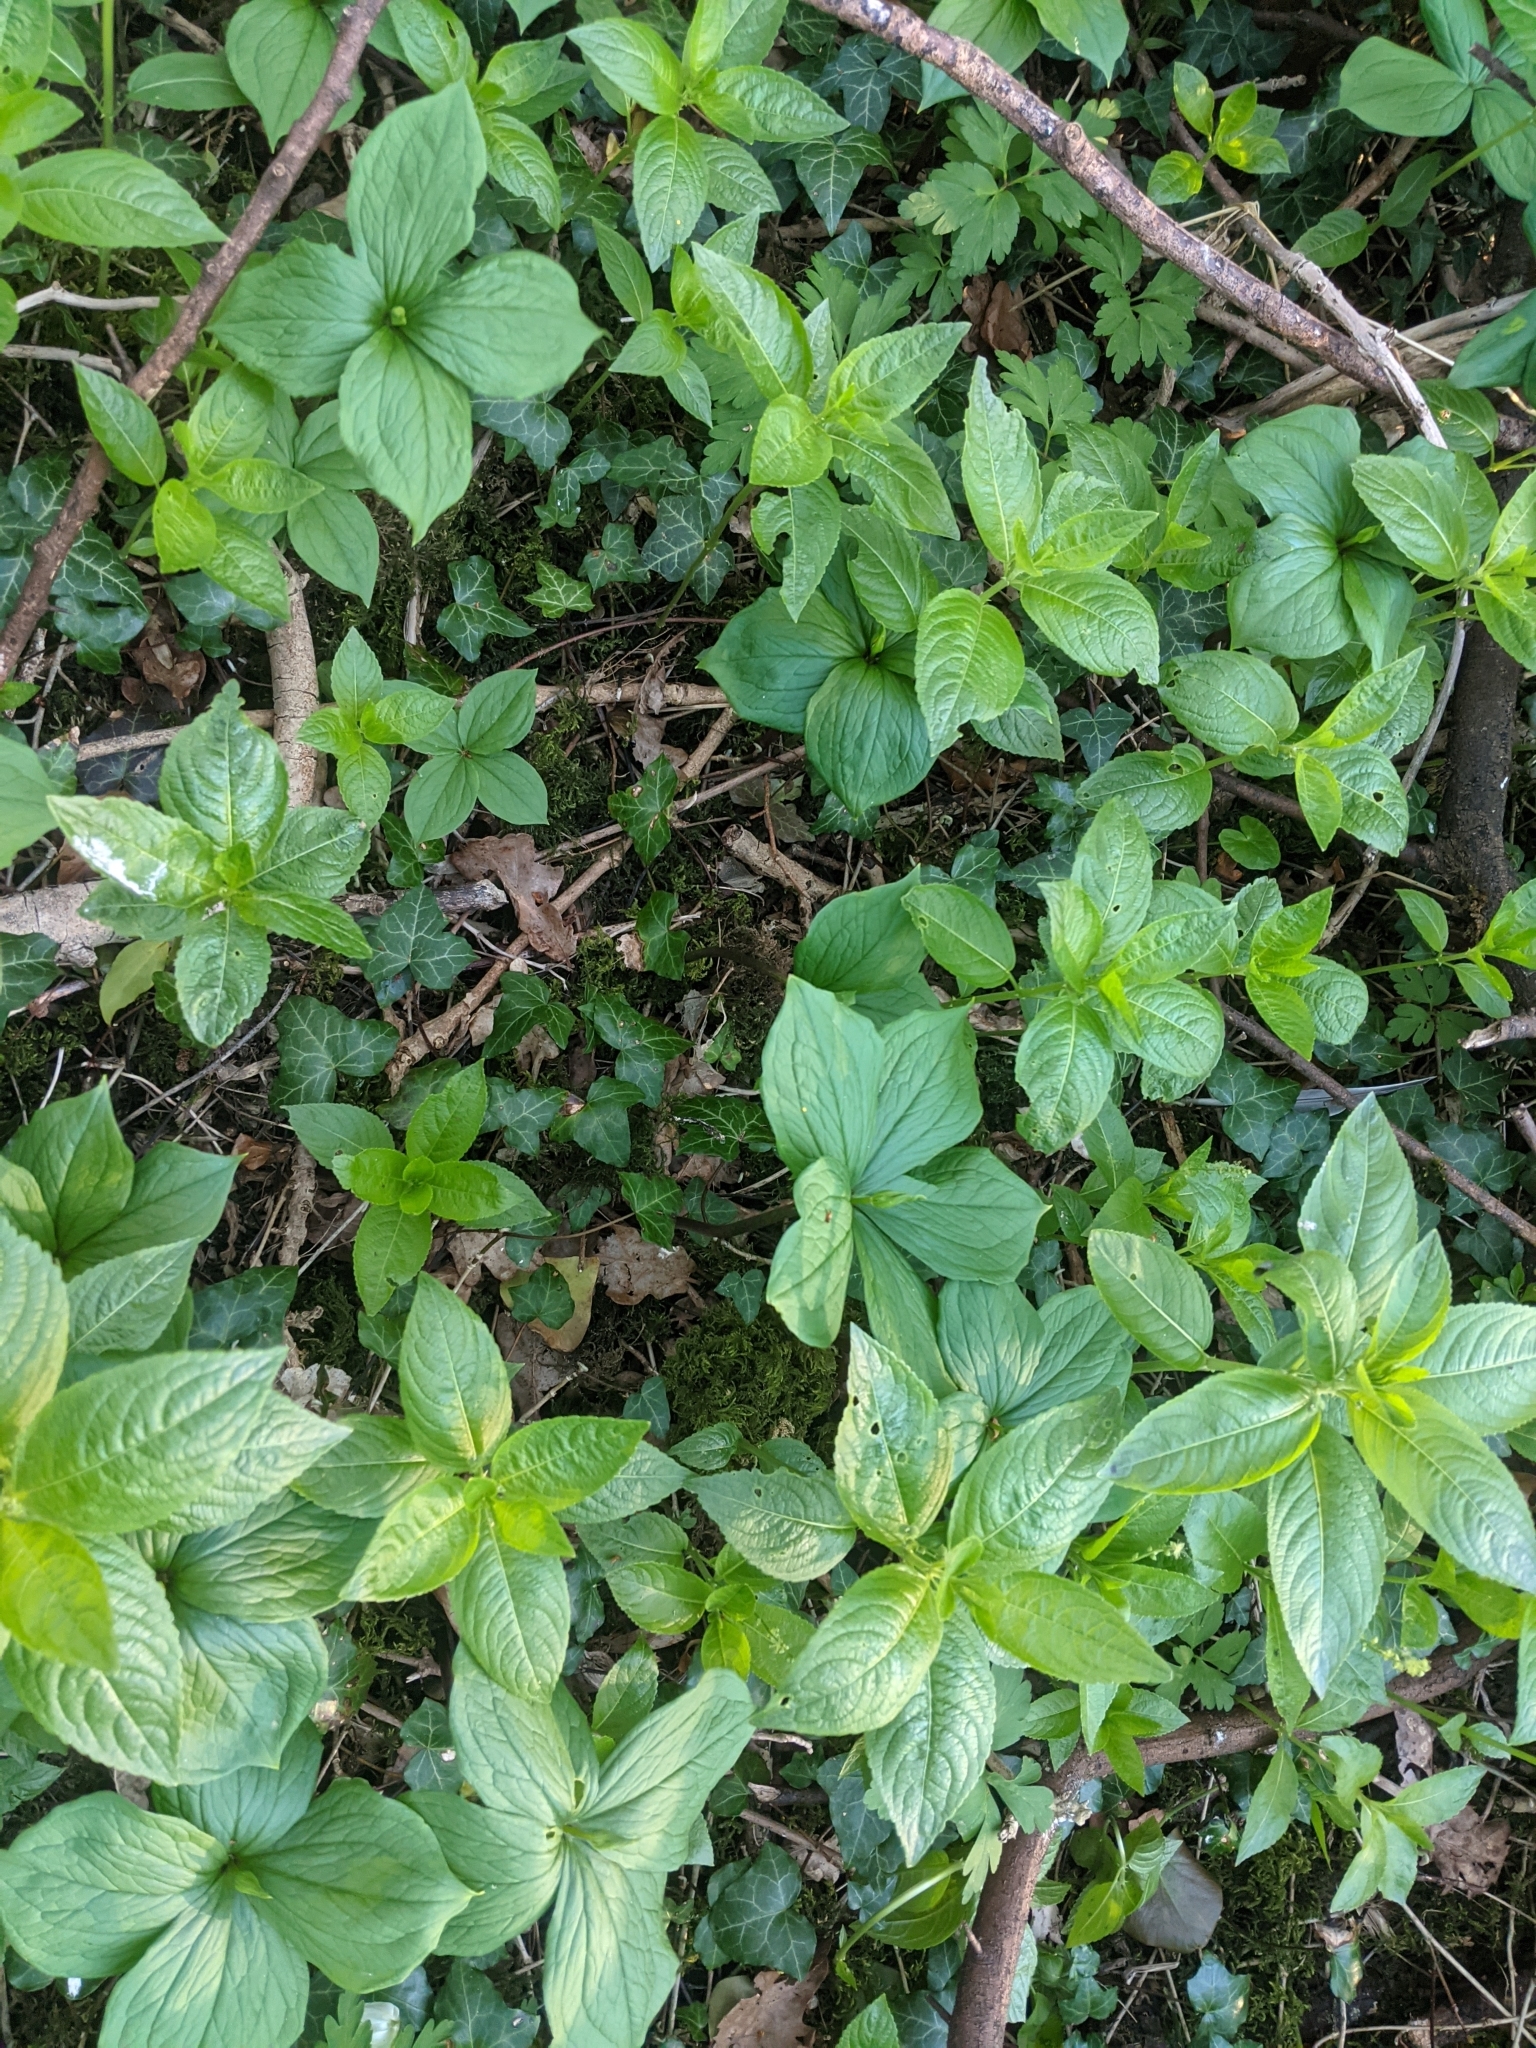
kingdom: Plantae
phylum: Tracheophyta
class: Liliopsida
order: Liliales
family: Melanthiaceae
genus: Paris
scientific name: Paris quadrifolia
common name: Herb-paris
